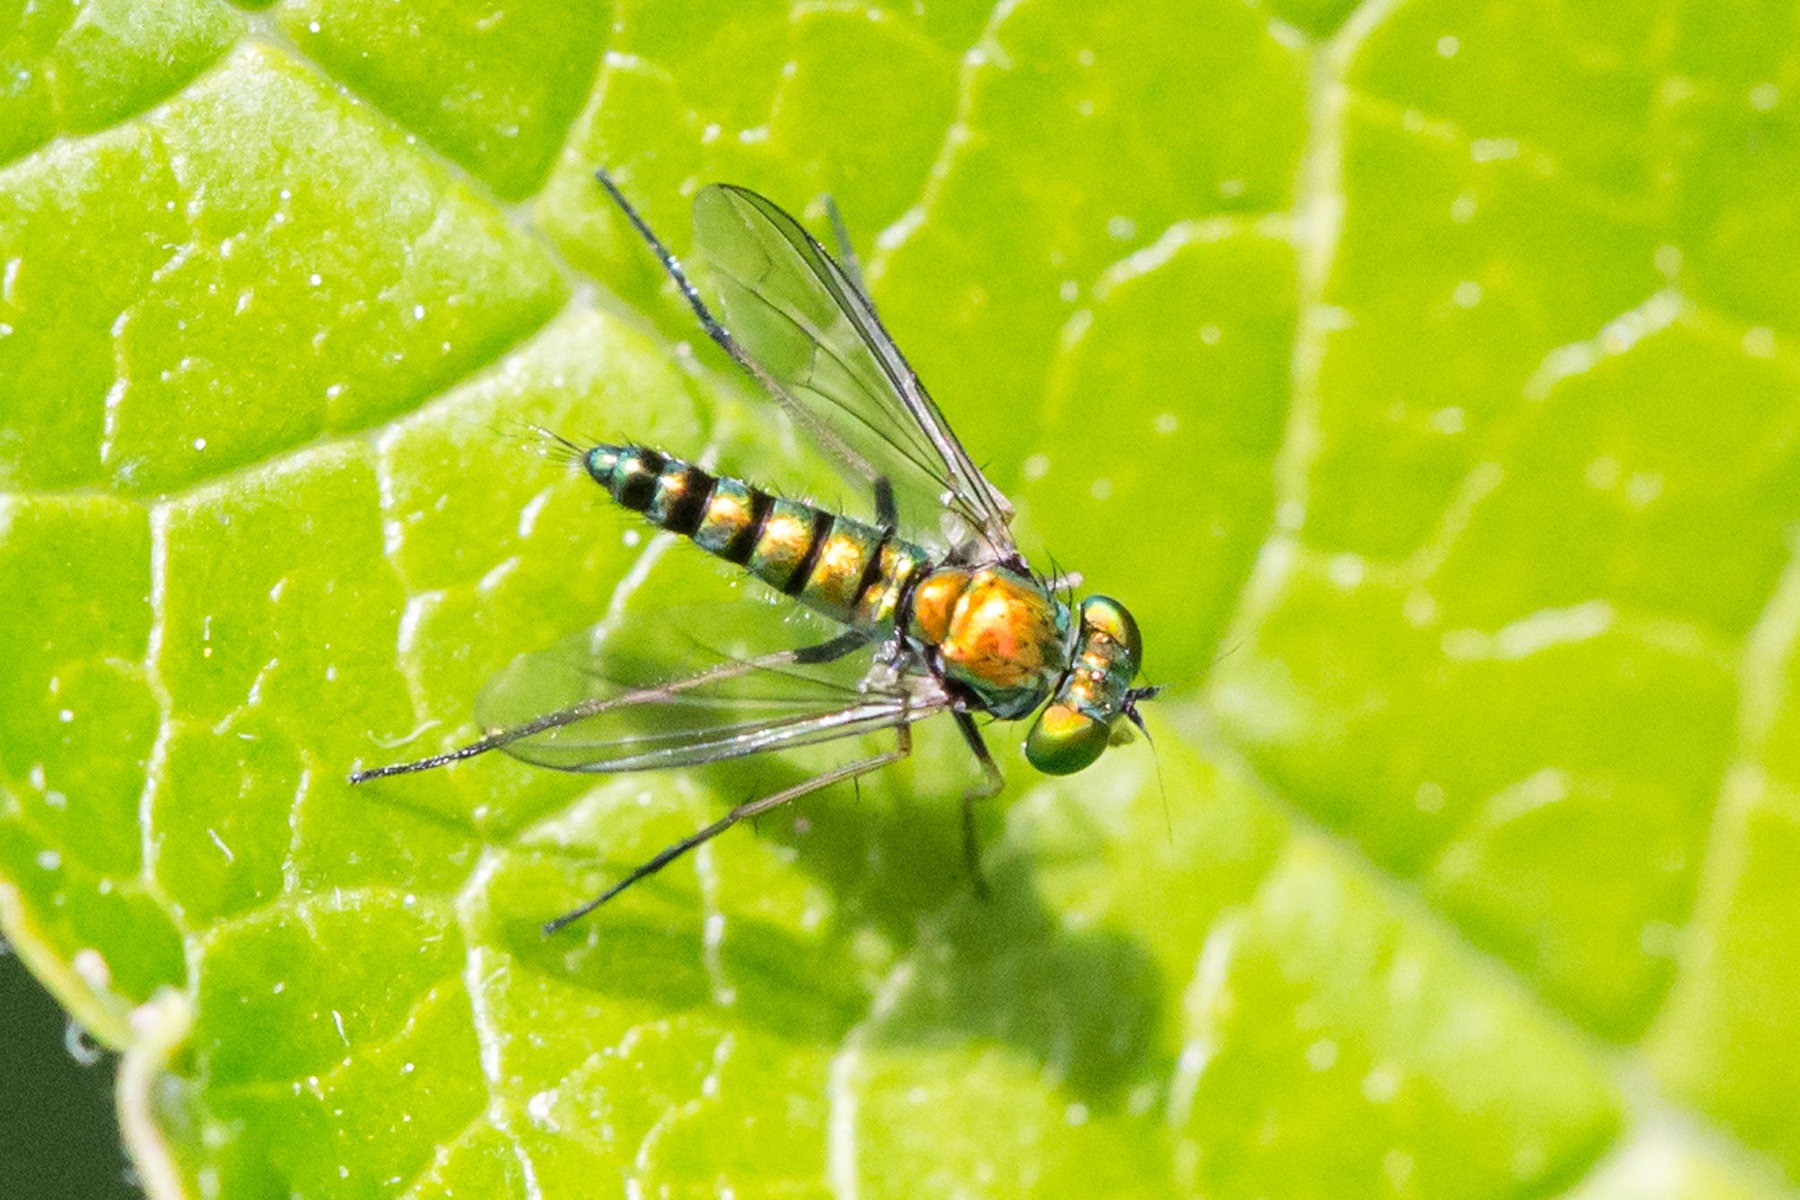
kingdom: Animalia
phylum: Arthropoda
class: Insecta
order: Diptera
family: Dolichopodidae
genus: Condylostylus
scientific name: Condylostylus caudatus
